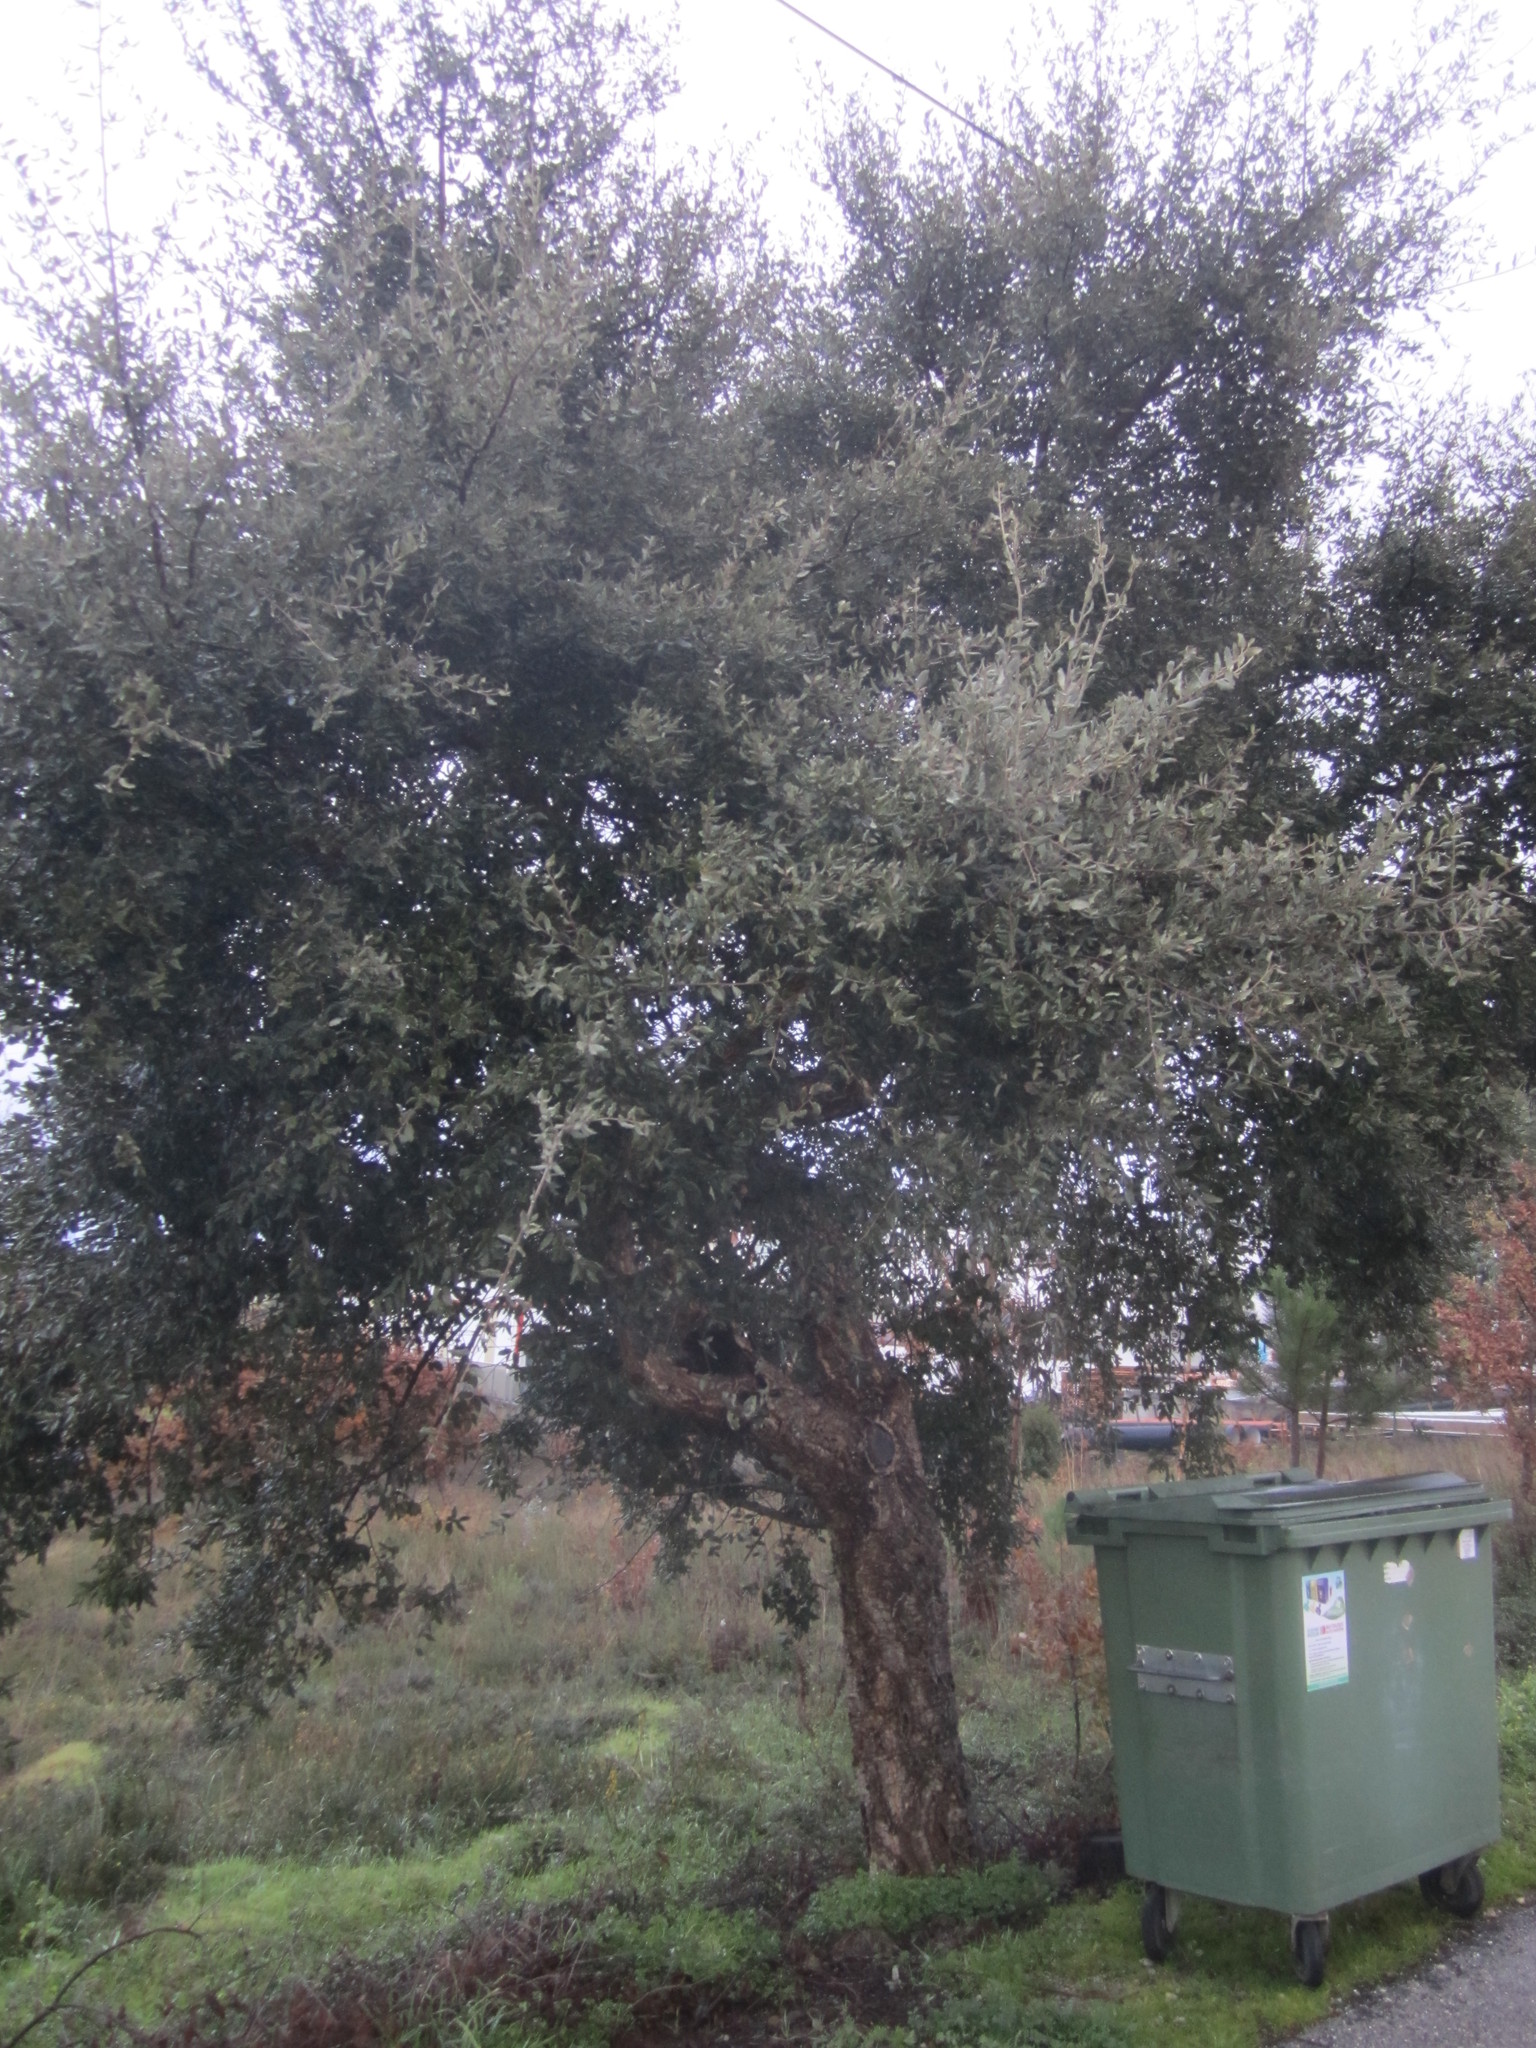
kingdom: Plantae
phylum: Tracheophyta
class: Magnoliopsida
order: Fagales
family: Fagaceae
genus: Quercus
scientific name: Quercus suber
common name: Cork oak
